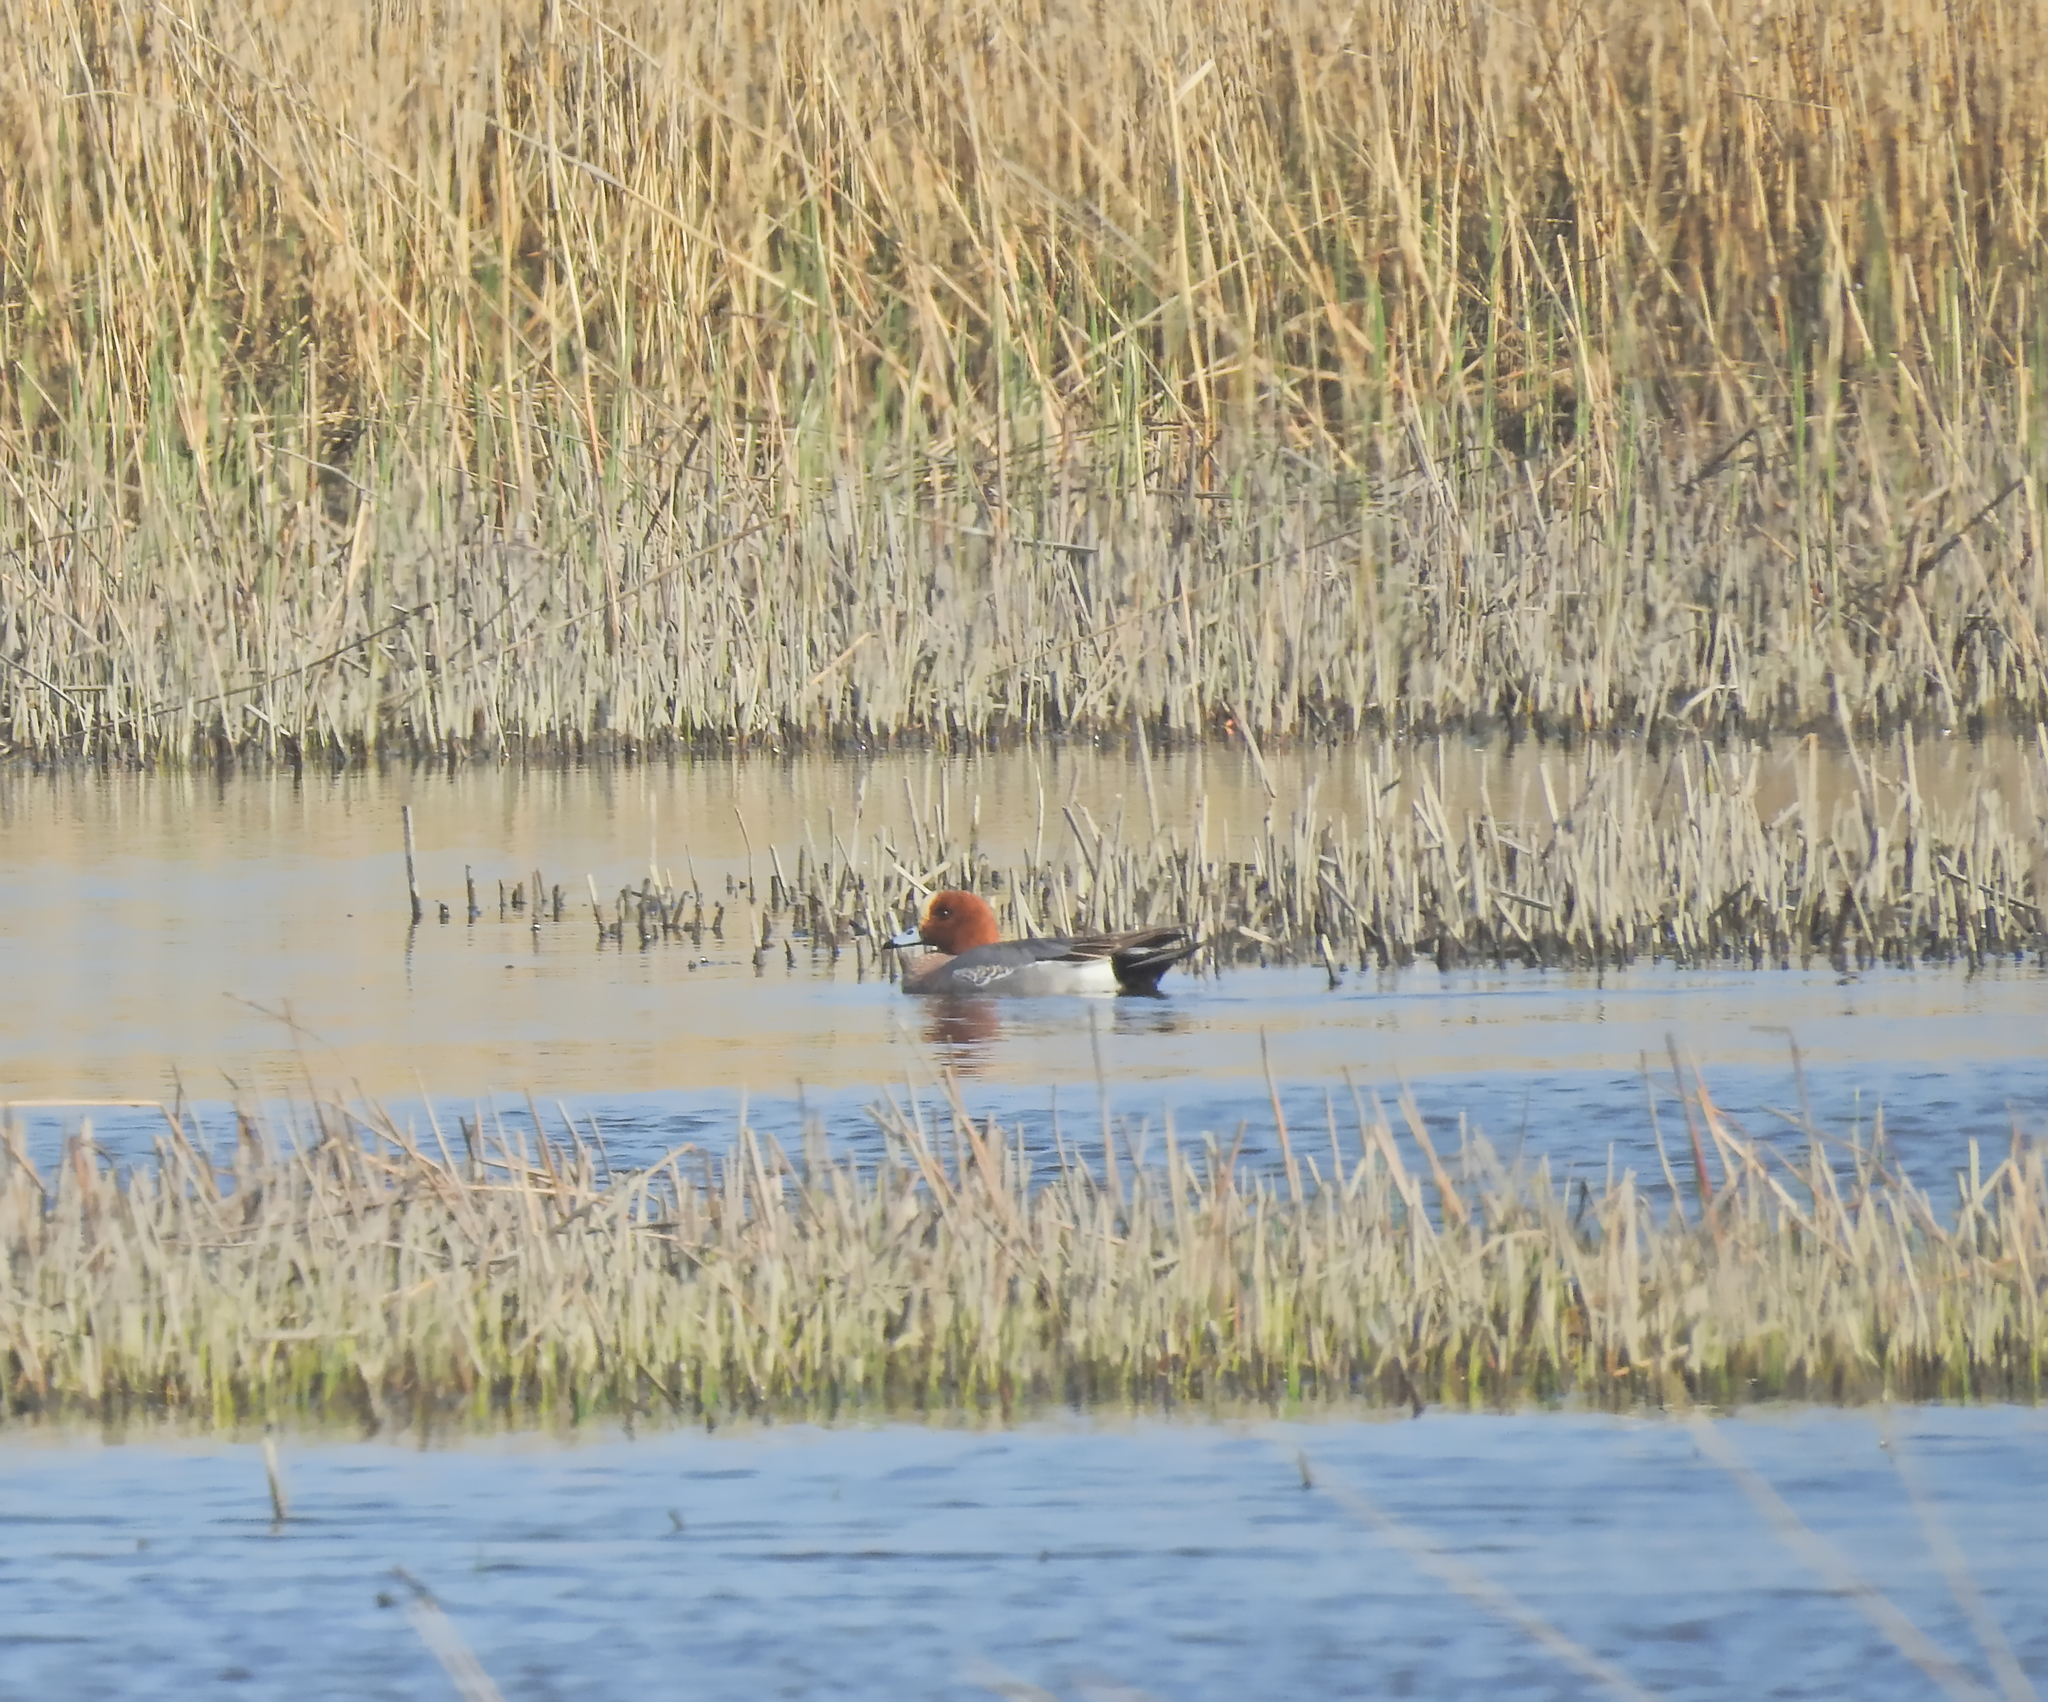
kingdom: Animalia
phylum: Chordata
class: Aves
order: Anseriformes
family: Anatidae
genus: Mareca
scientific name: Mareca penelope
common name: Eurasian wigeon
